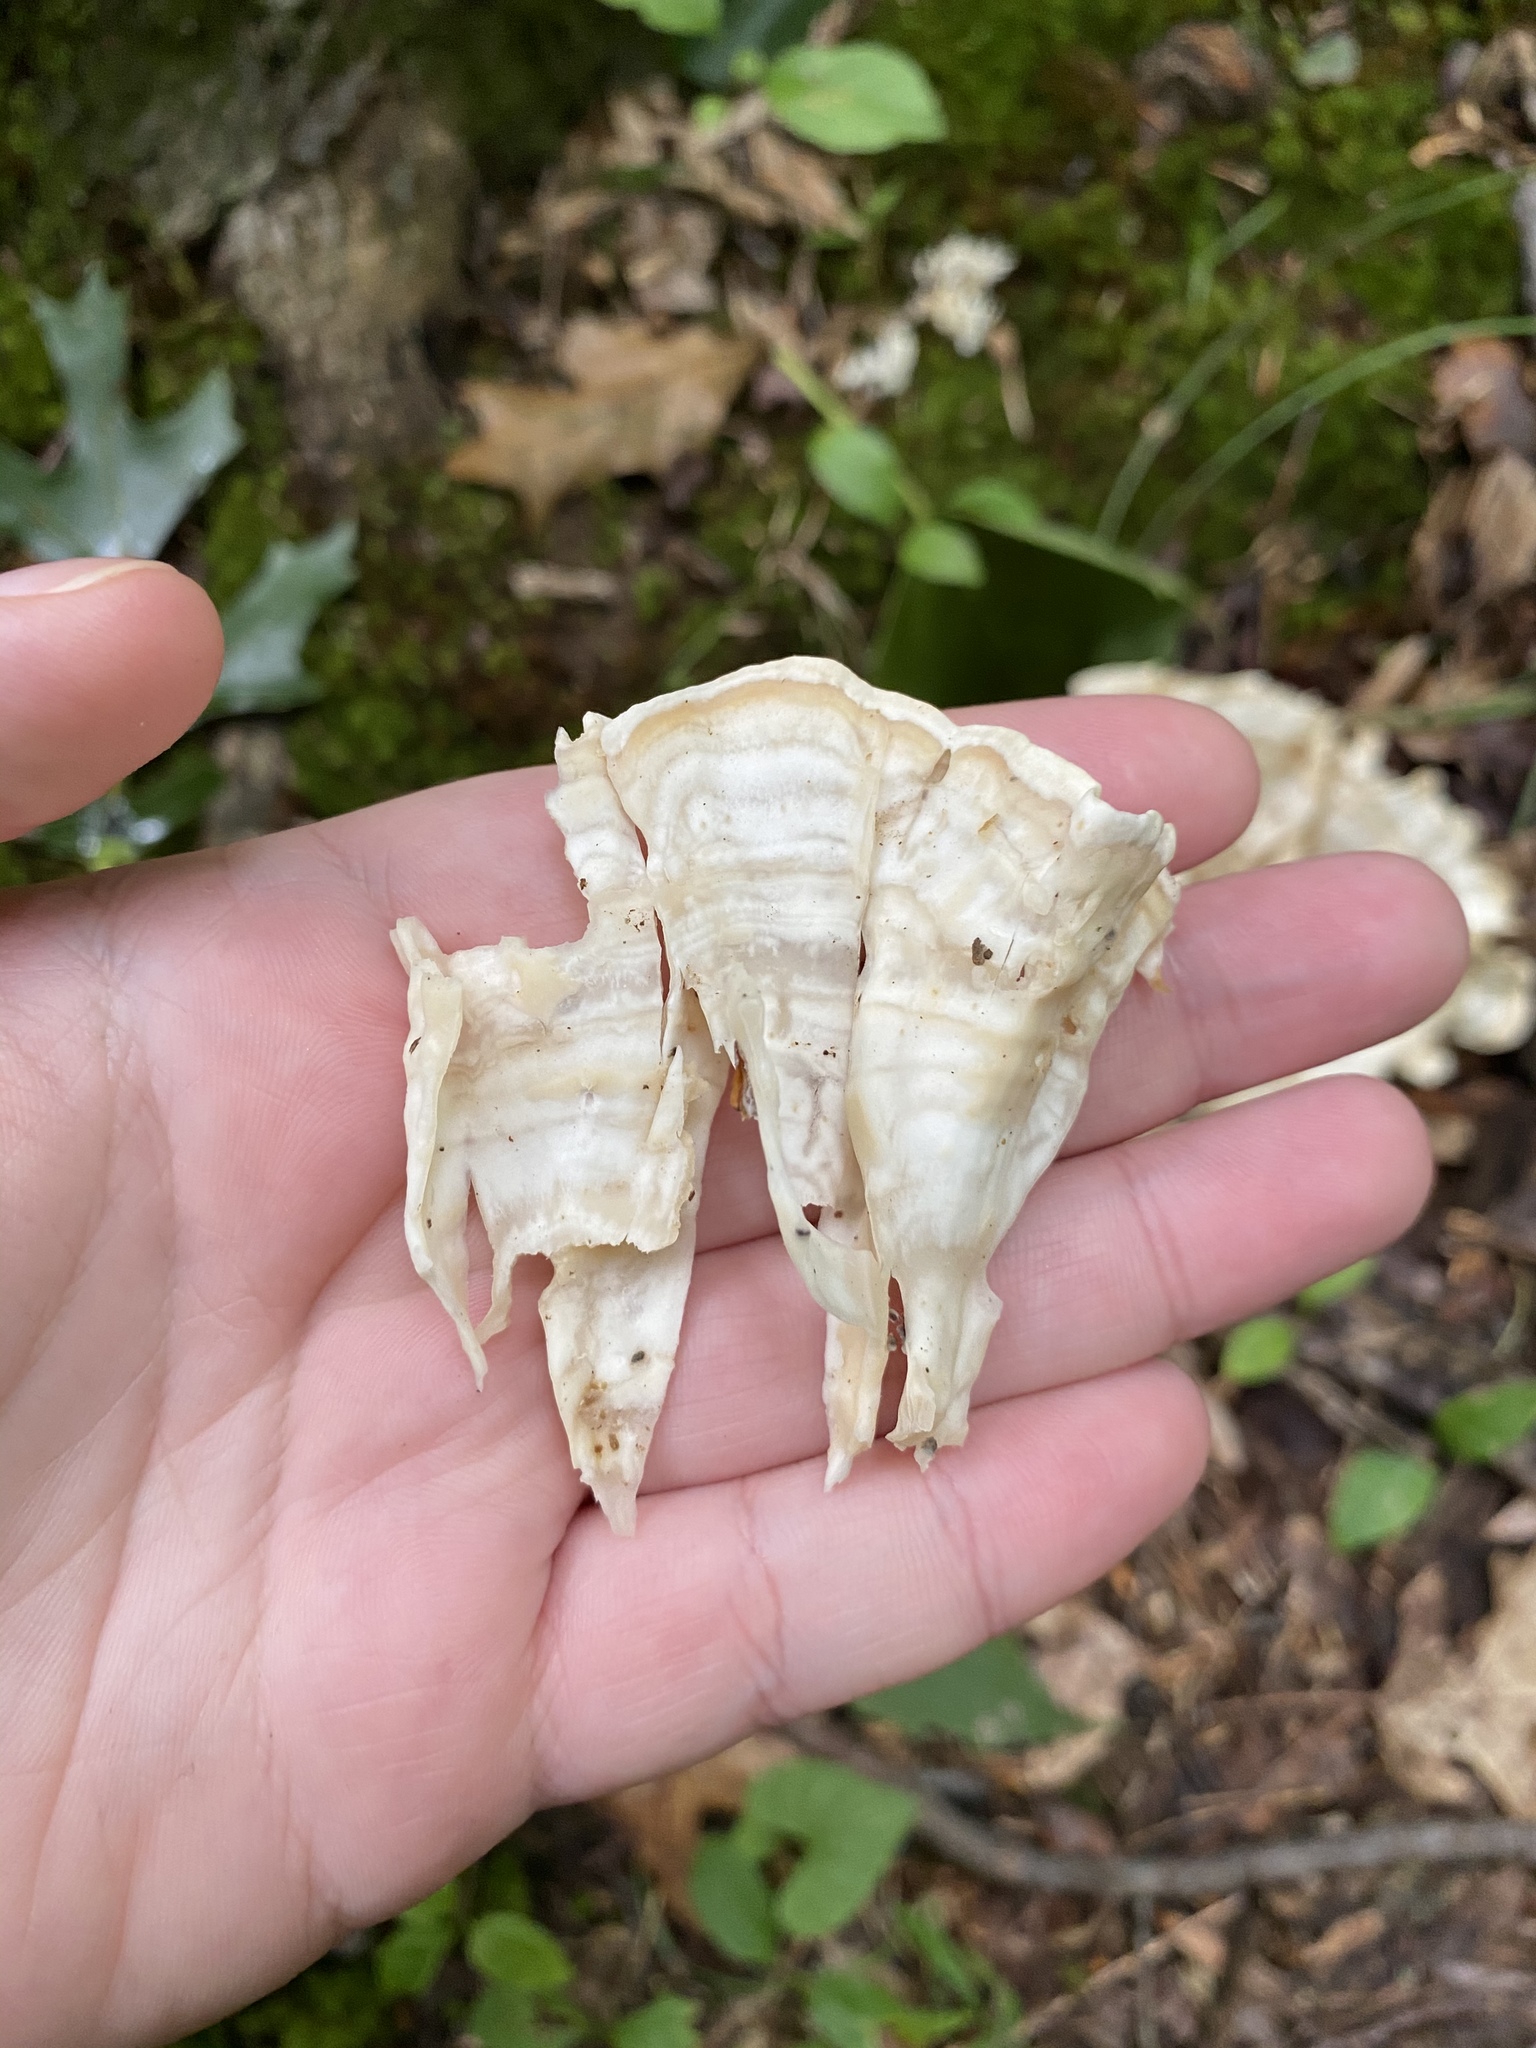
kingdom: Fungi
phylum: Basidiomycota
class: Agaricomycetes
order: Polyporales
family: Sparassidaceae
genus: Sparassis
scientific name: Sparassis spathulata
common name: Eastern cauliflower mushroom
